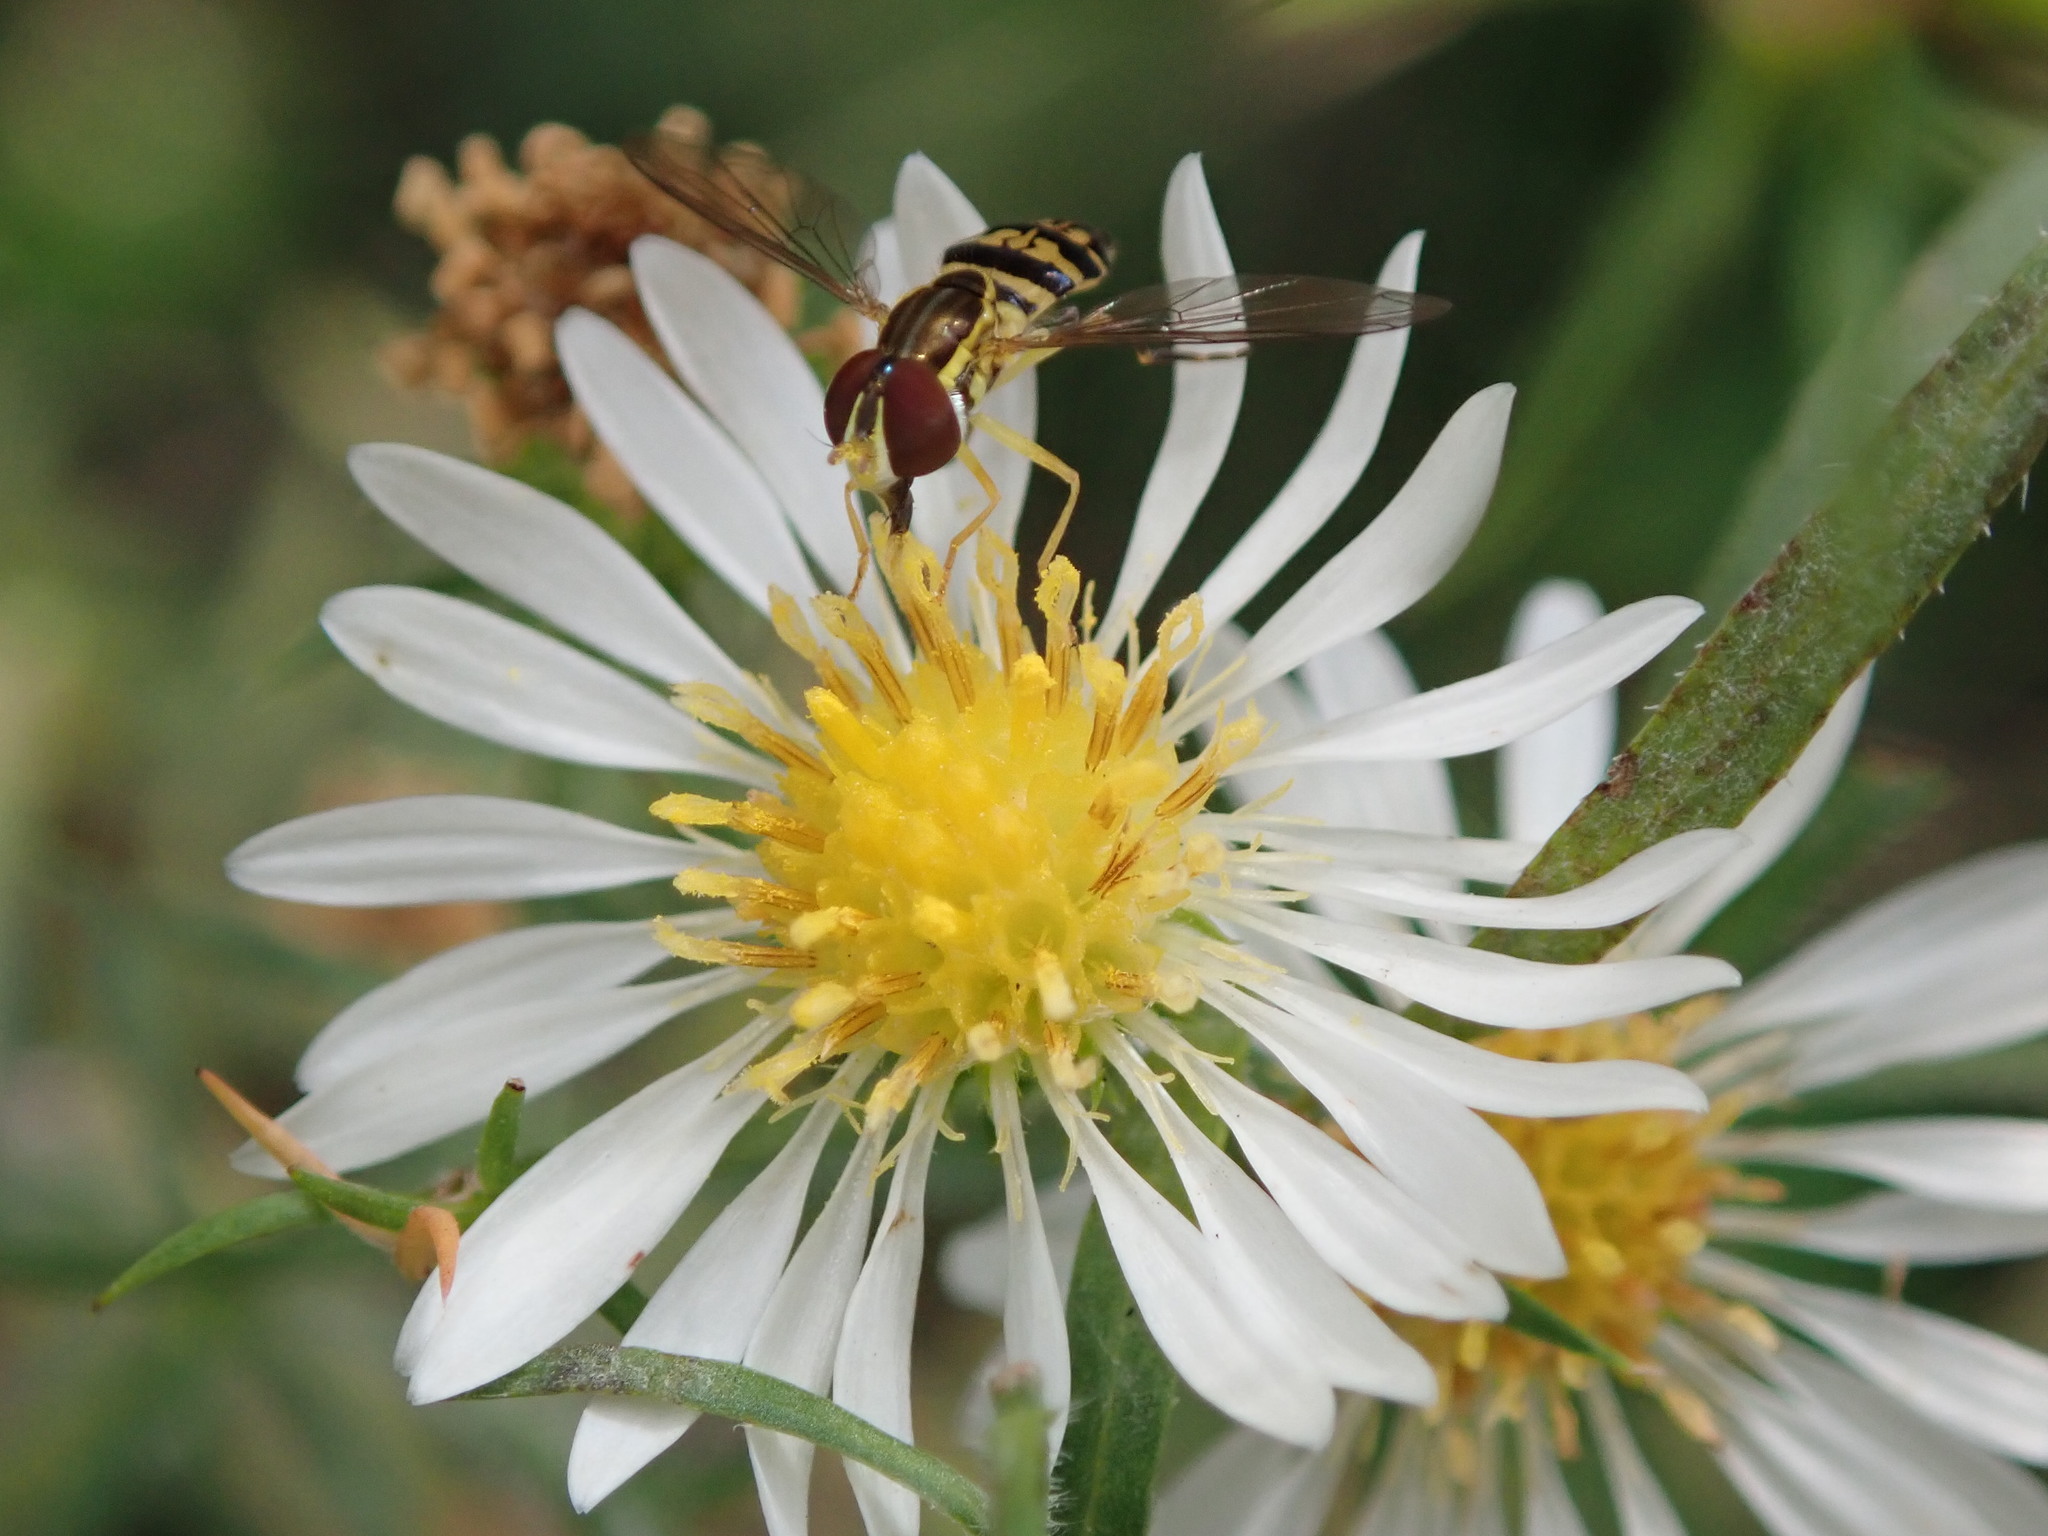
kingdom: Animalia
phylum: Arthropoda
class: Insecta
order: Diptera
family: Syrphidae
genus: Toxomerus
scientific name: Toxomerus geminatus
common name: Eastern calligrapher
